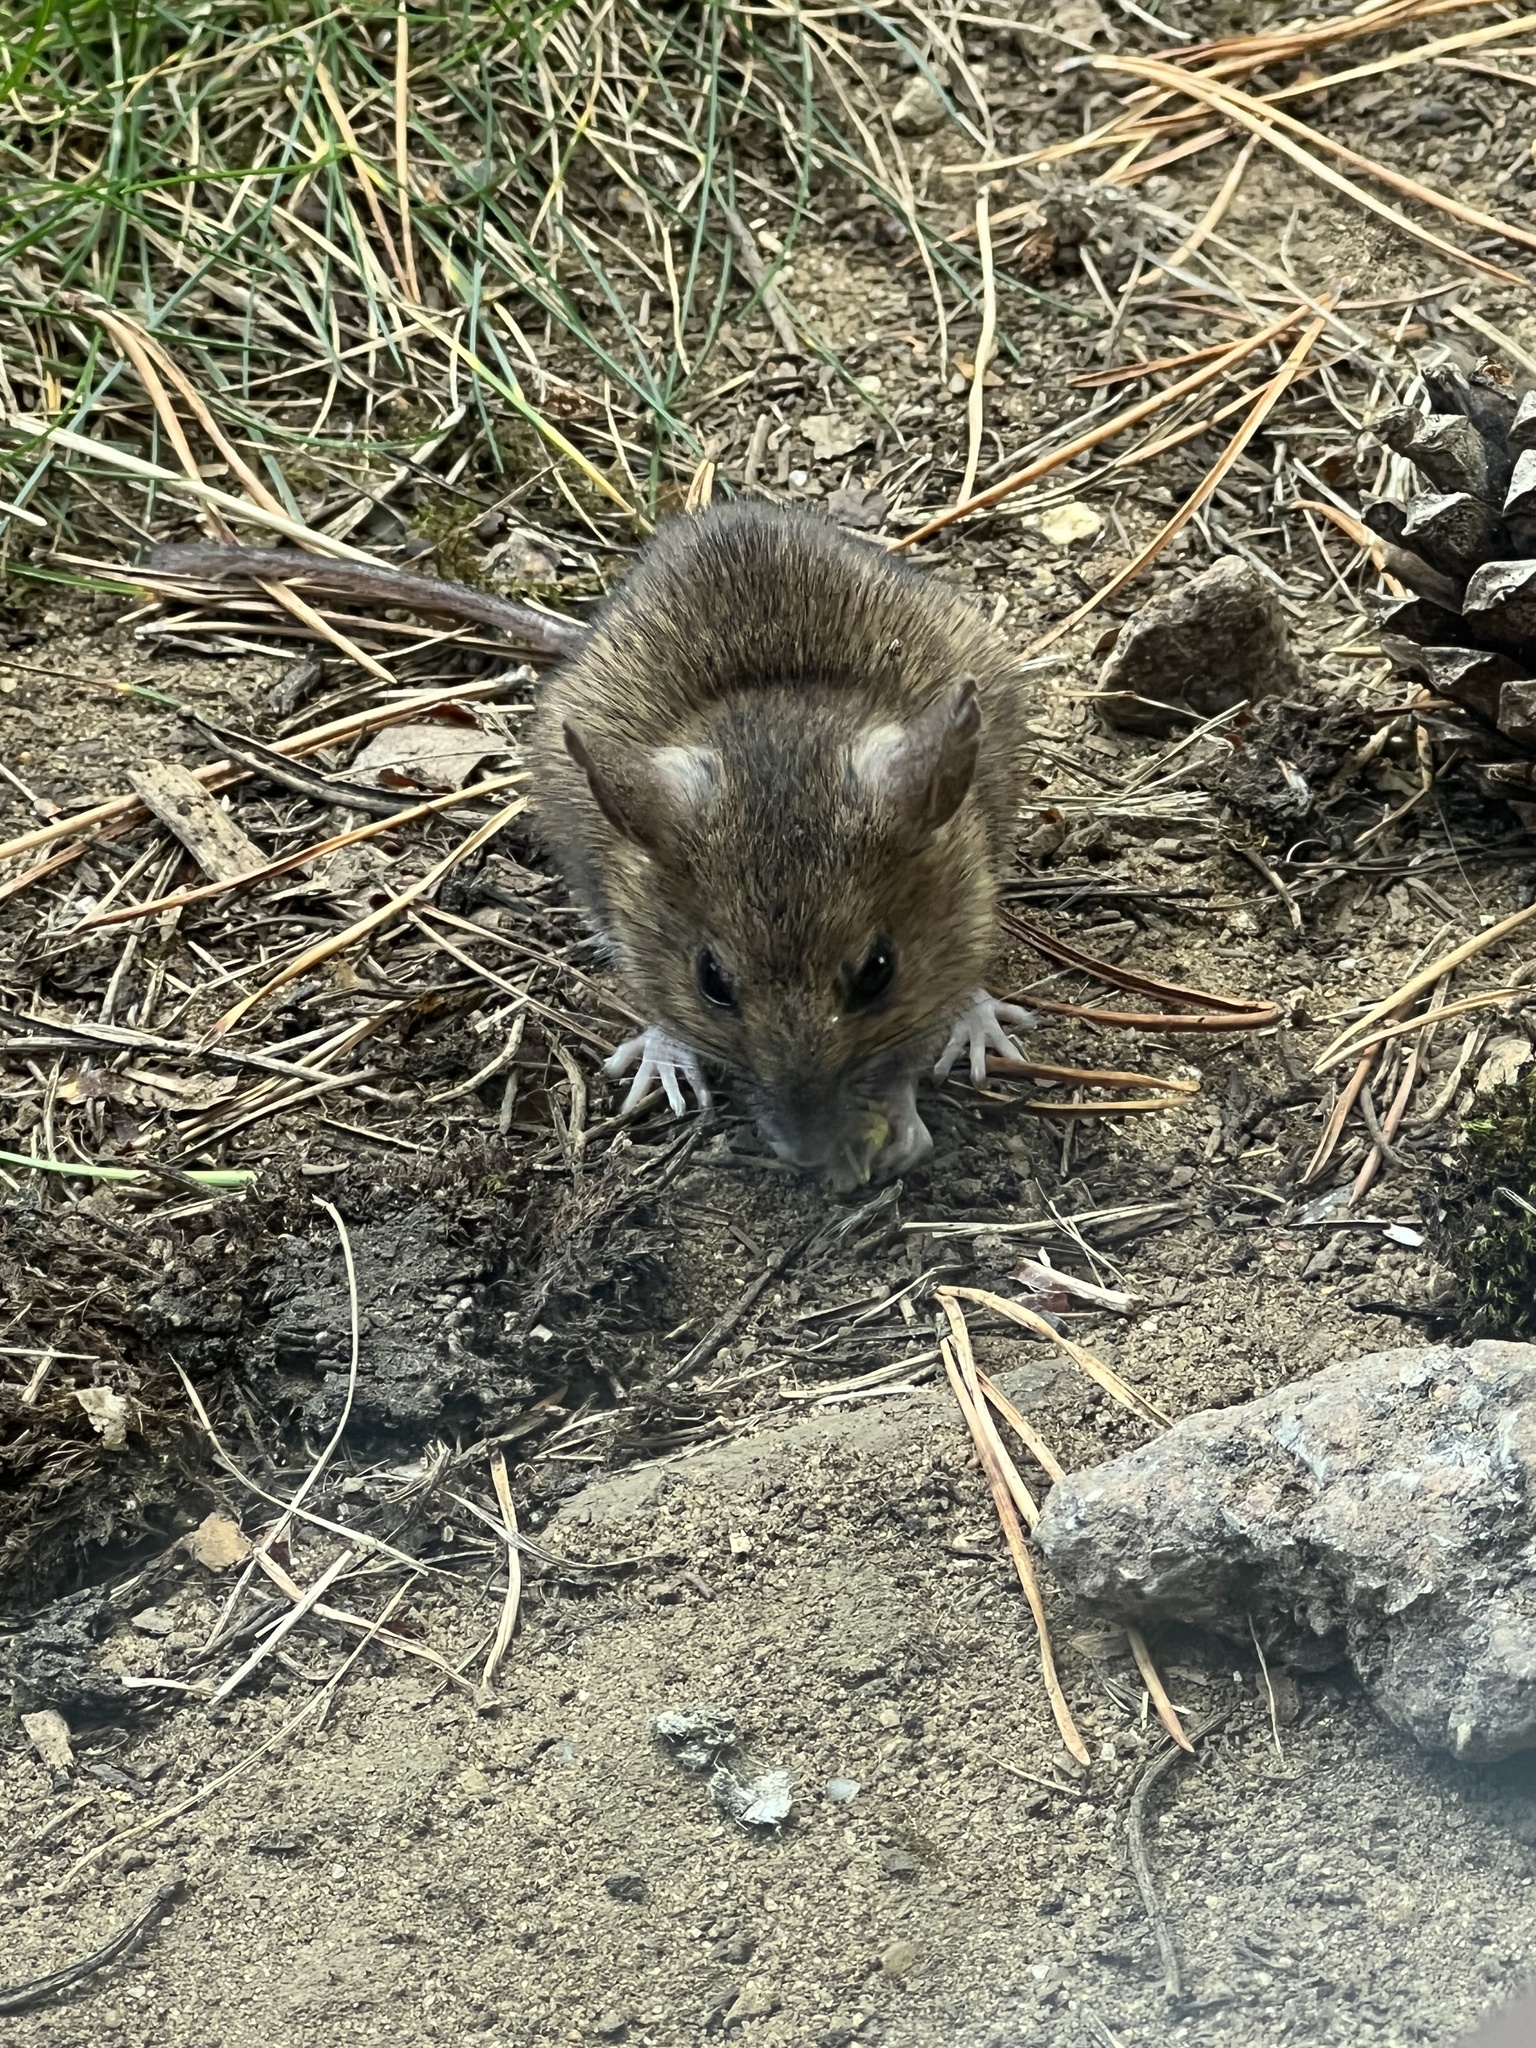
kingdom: Animalia
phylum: Chordata
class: Mammalia
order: Rodentia
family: Muridae
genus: Apodemus
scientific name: Apodemus sylvaticus
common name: Wood mouse
